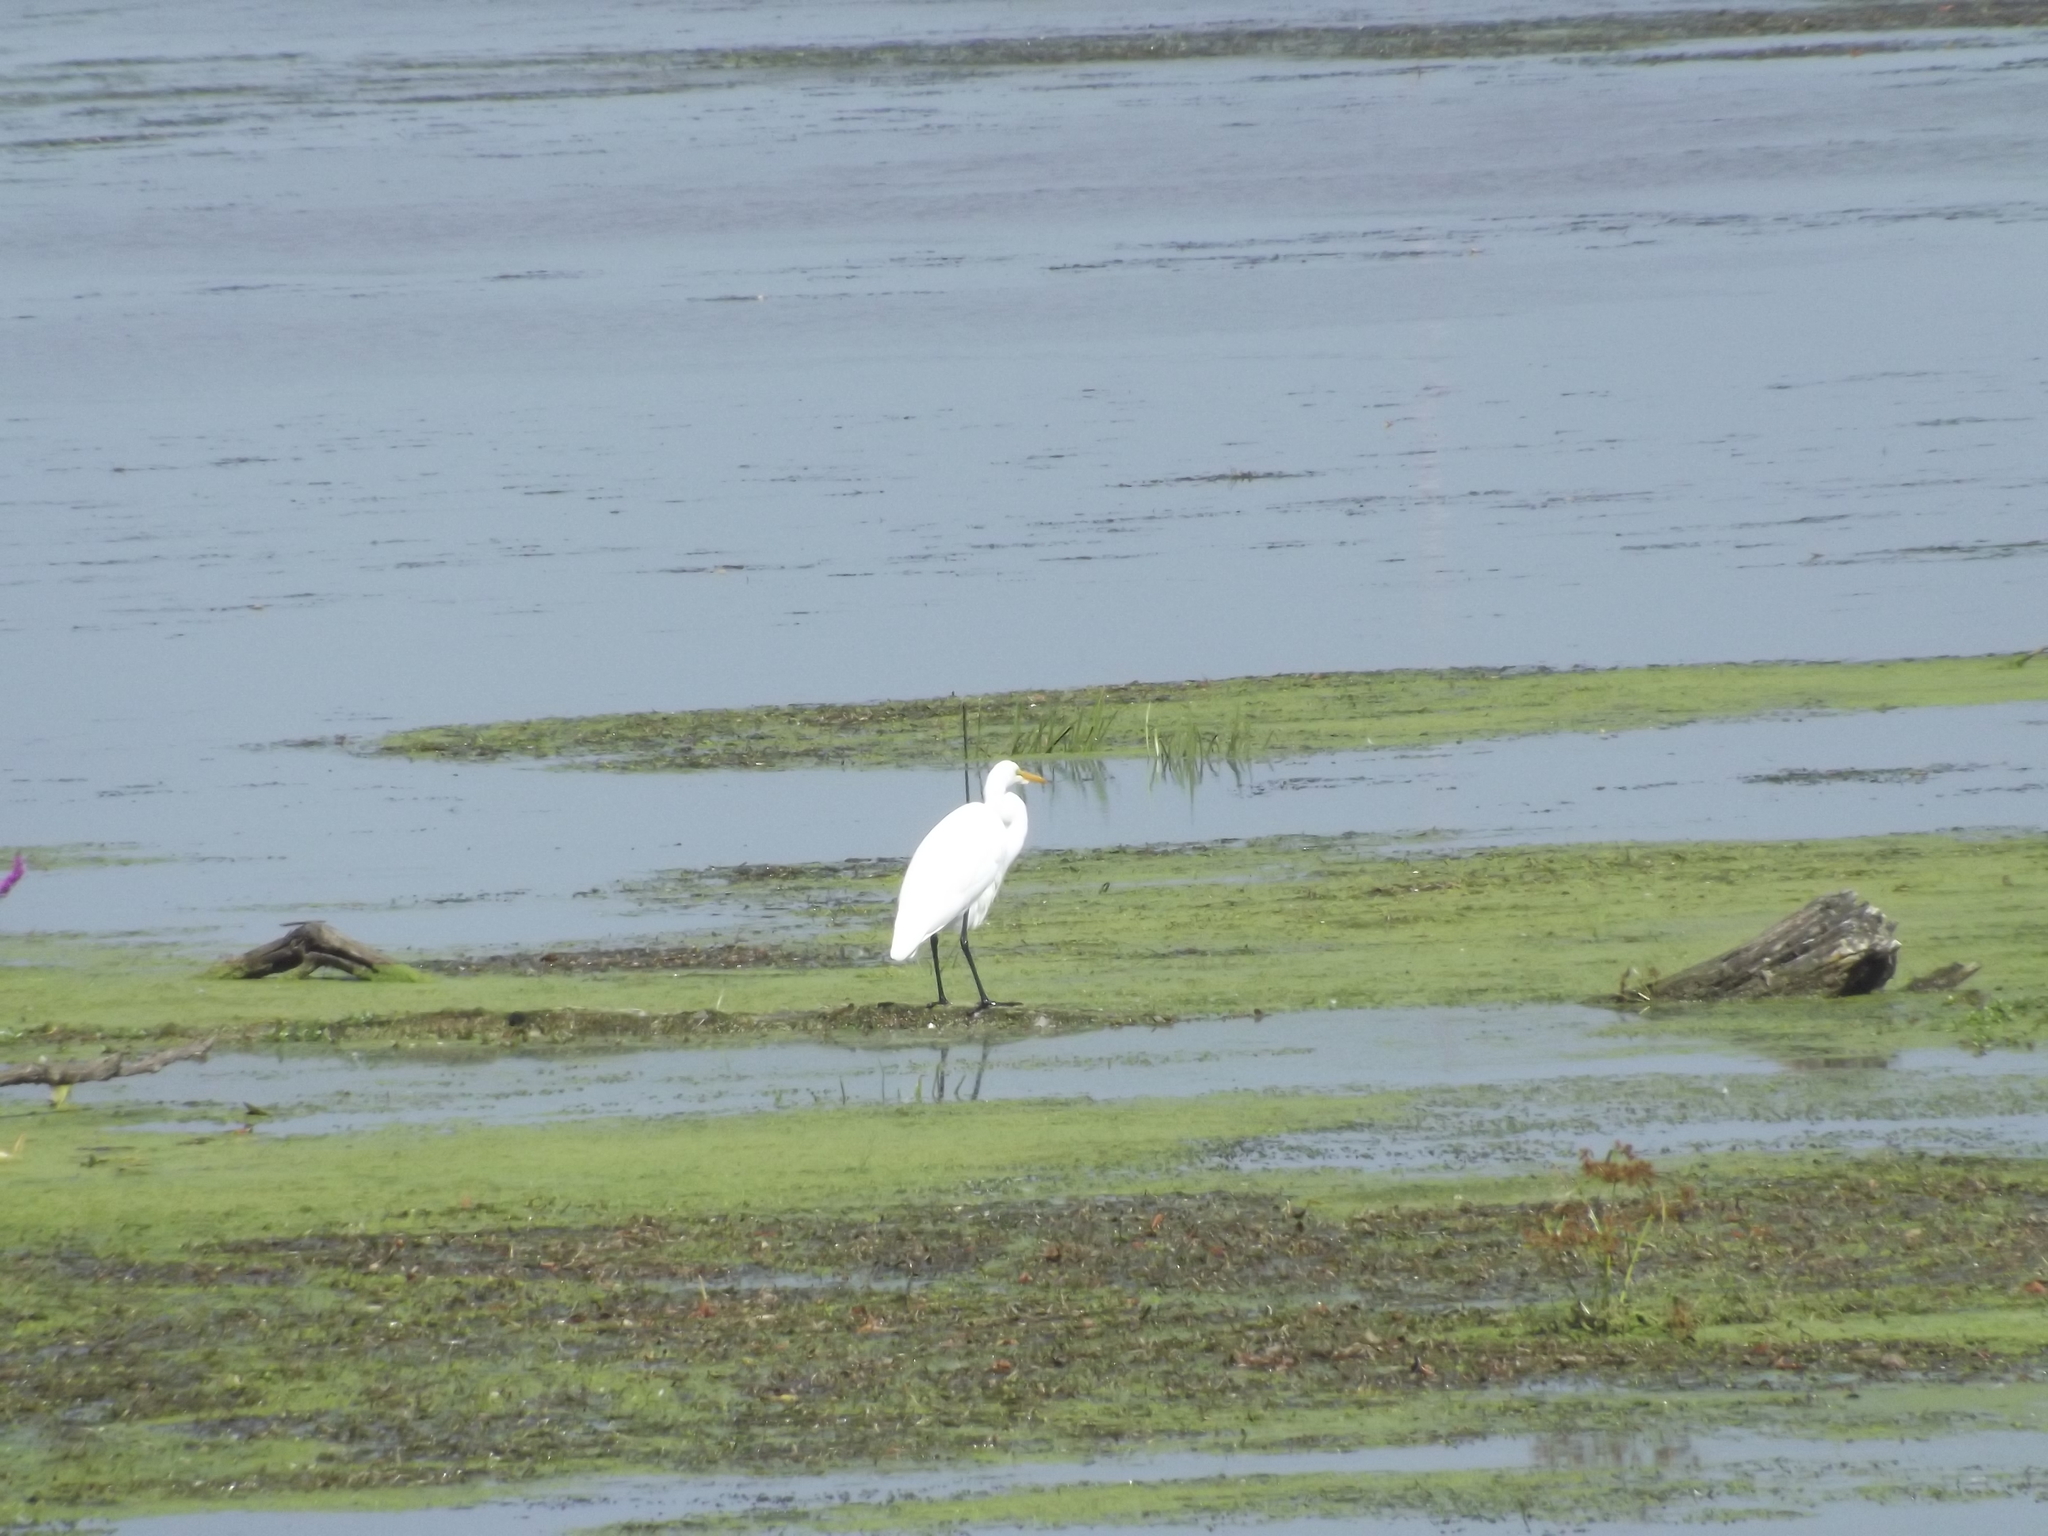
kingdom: Animalia
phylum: Chordata
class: Aves
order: Pelecaniformes
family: Ardeidae
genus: Ardea
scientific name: Ardea alba
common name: Great egret
